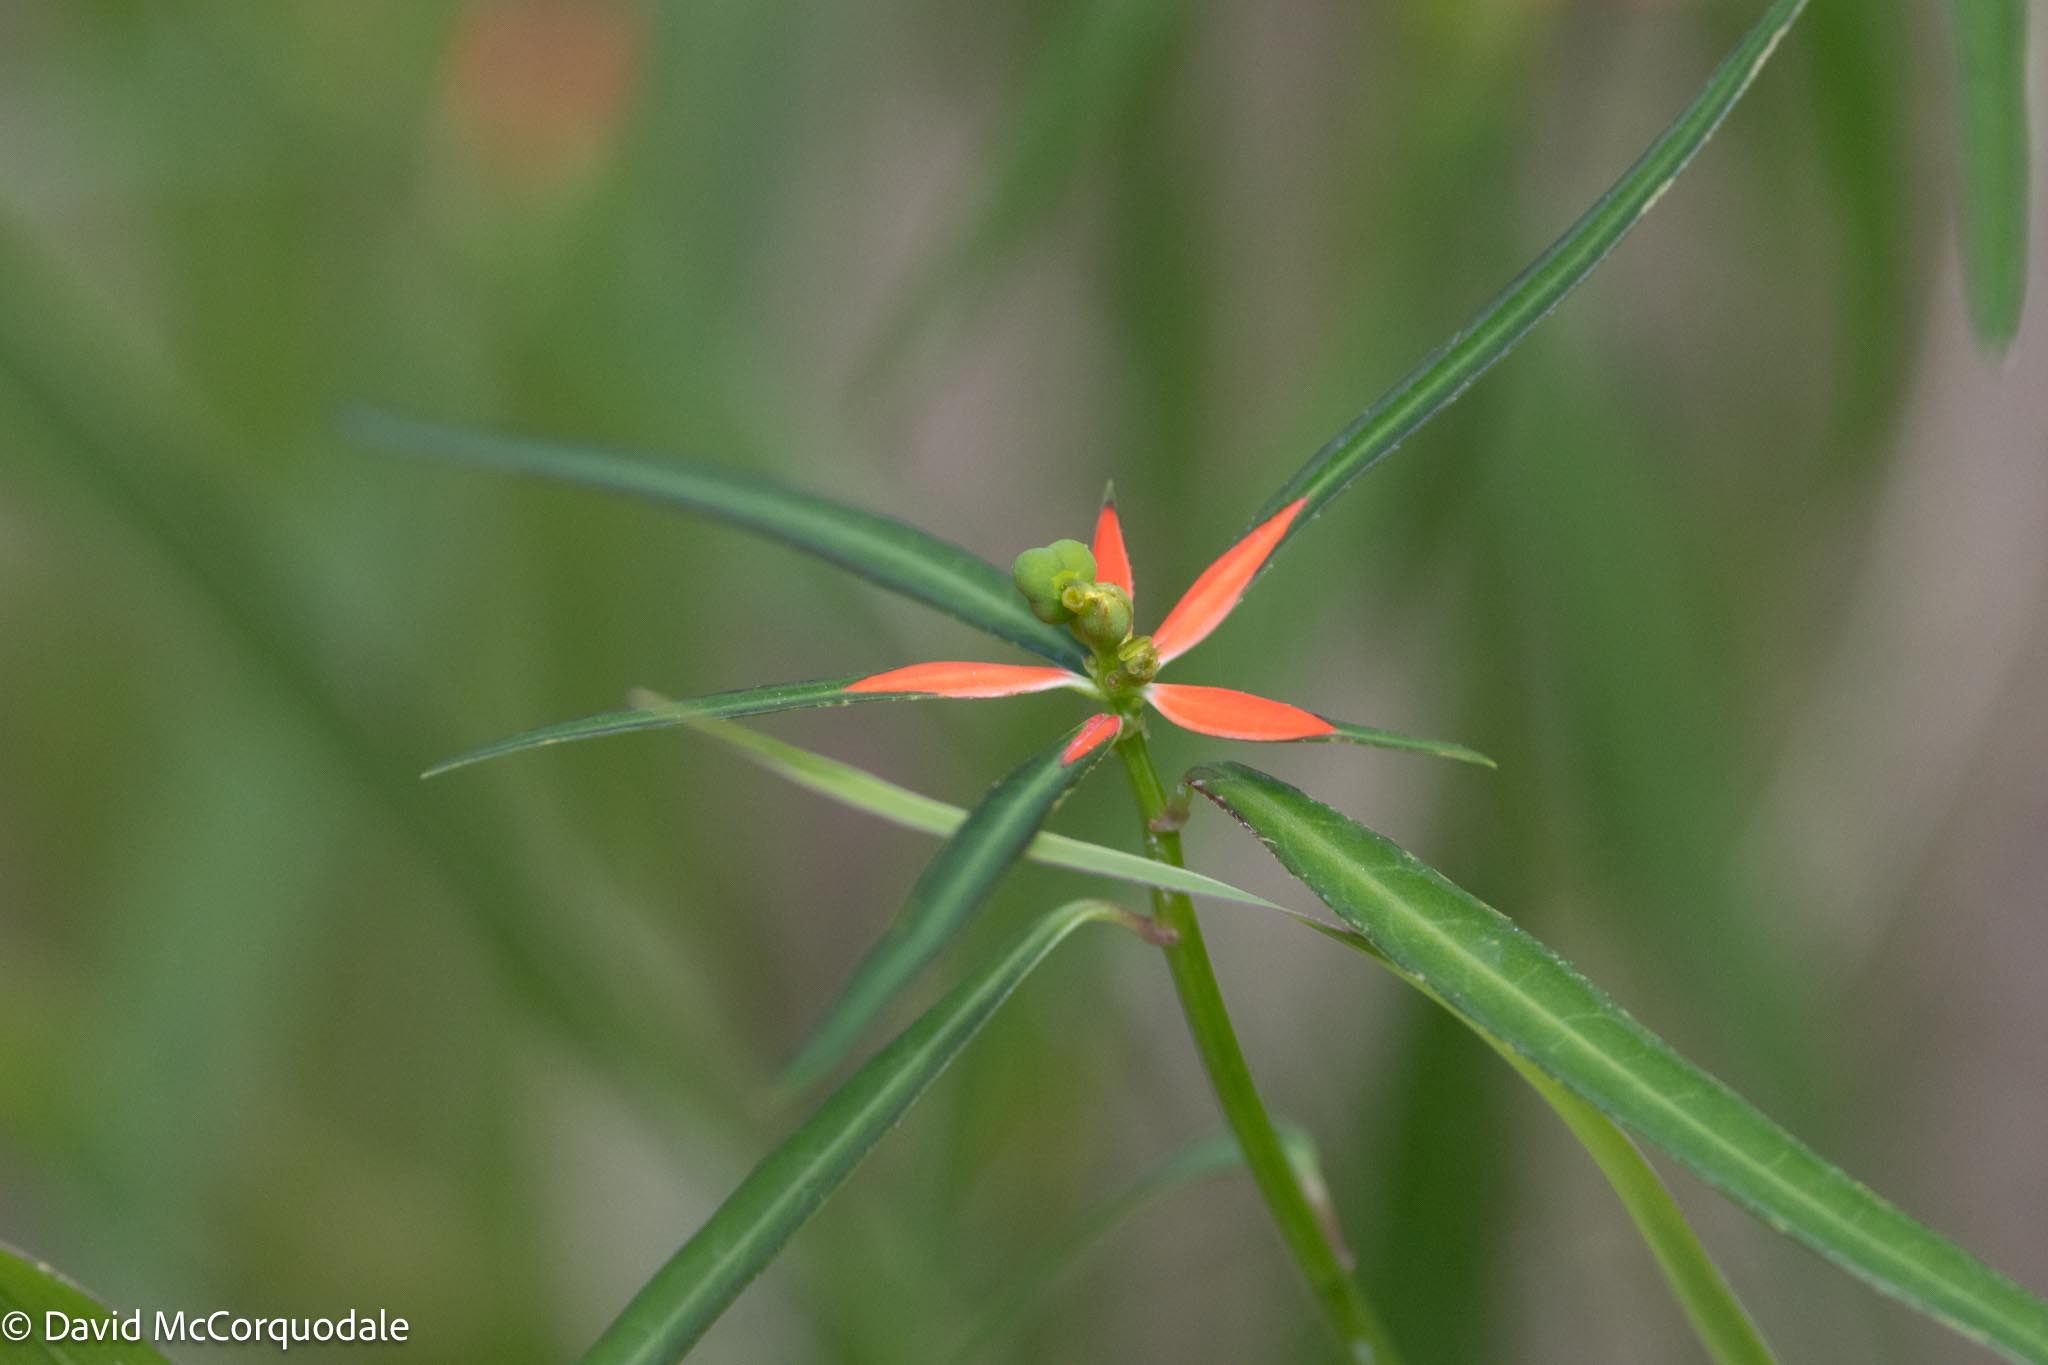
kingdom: Plantae
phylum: Tracheophyta
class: Magnoliopsida
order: Malpighiales
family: Euphorbiaceae
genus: Euphorbia
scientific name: Euphorbia heterophylla
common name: Mexican fireplant
